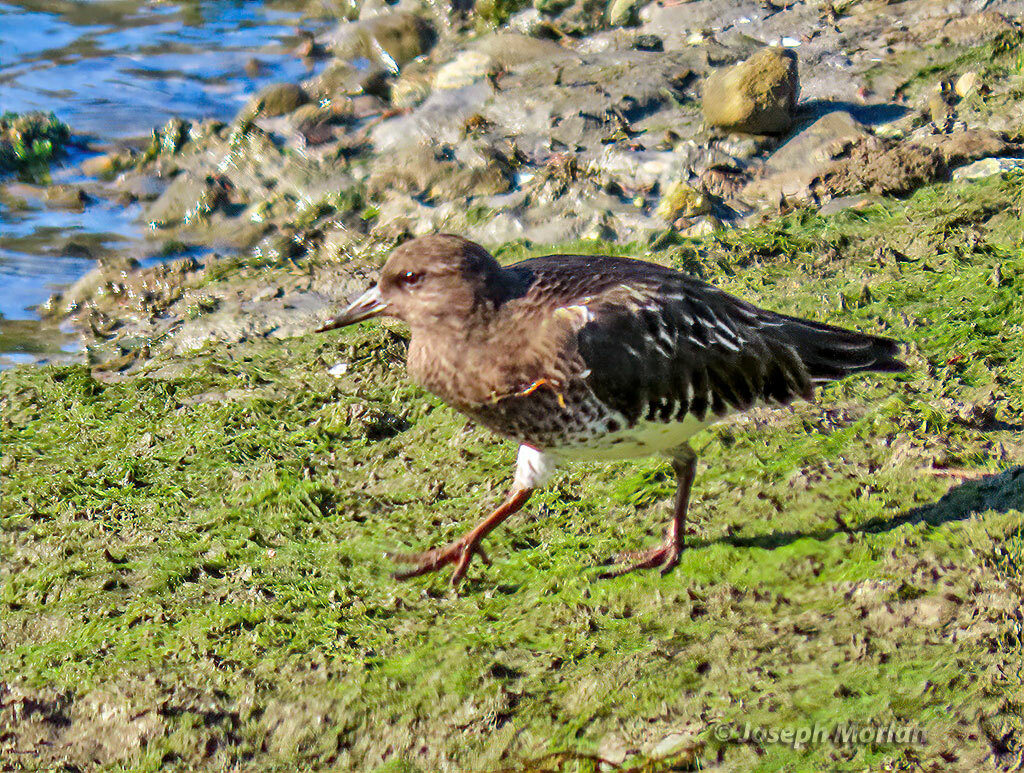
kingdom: Animalia
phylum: Chordata
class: Aves
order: Charadriiformes
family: Scolopacidae
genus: Arenaria
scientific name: Arenaria melanocephala
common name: Black turnstone
